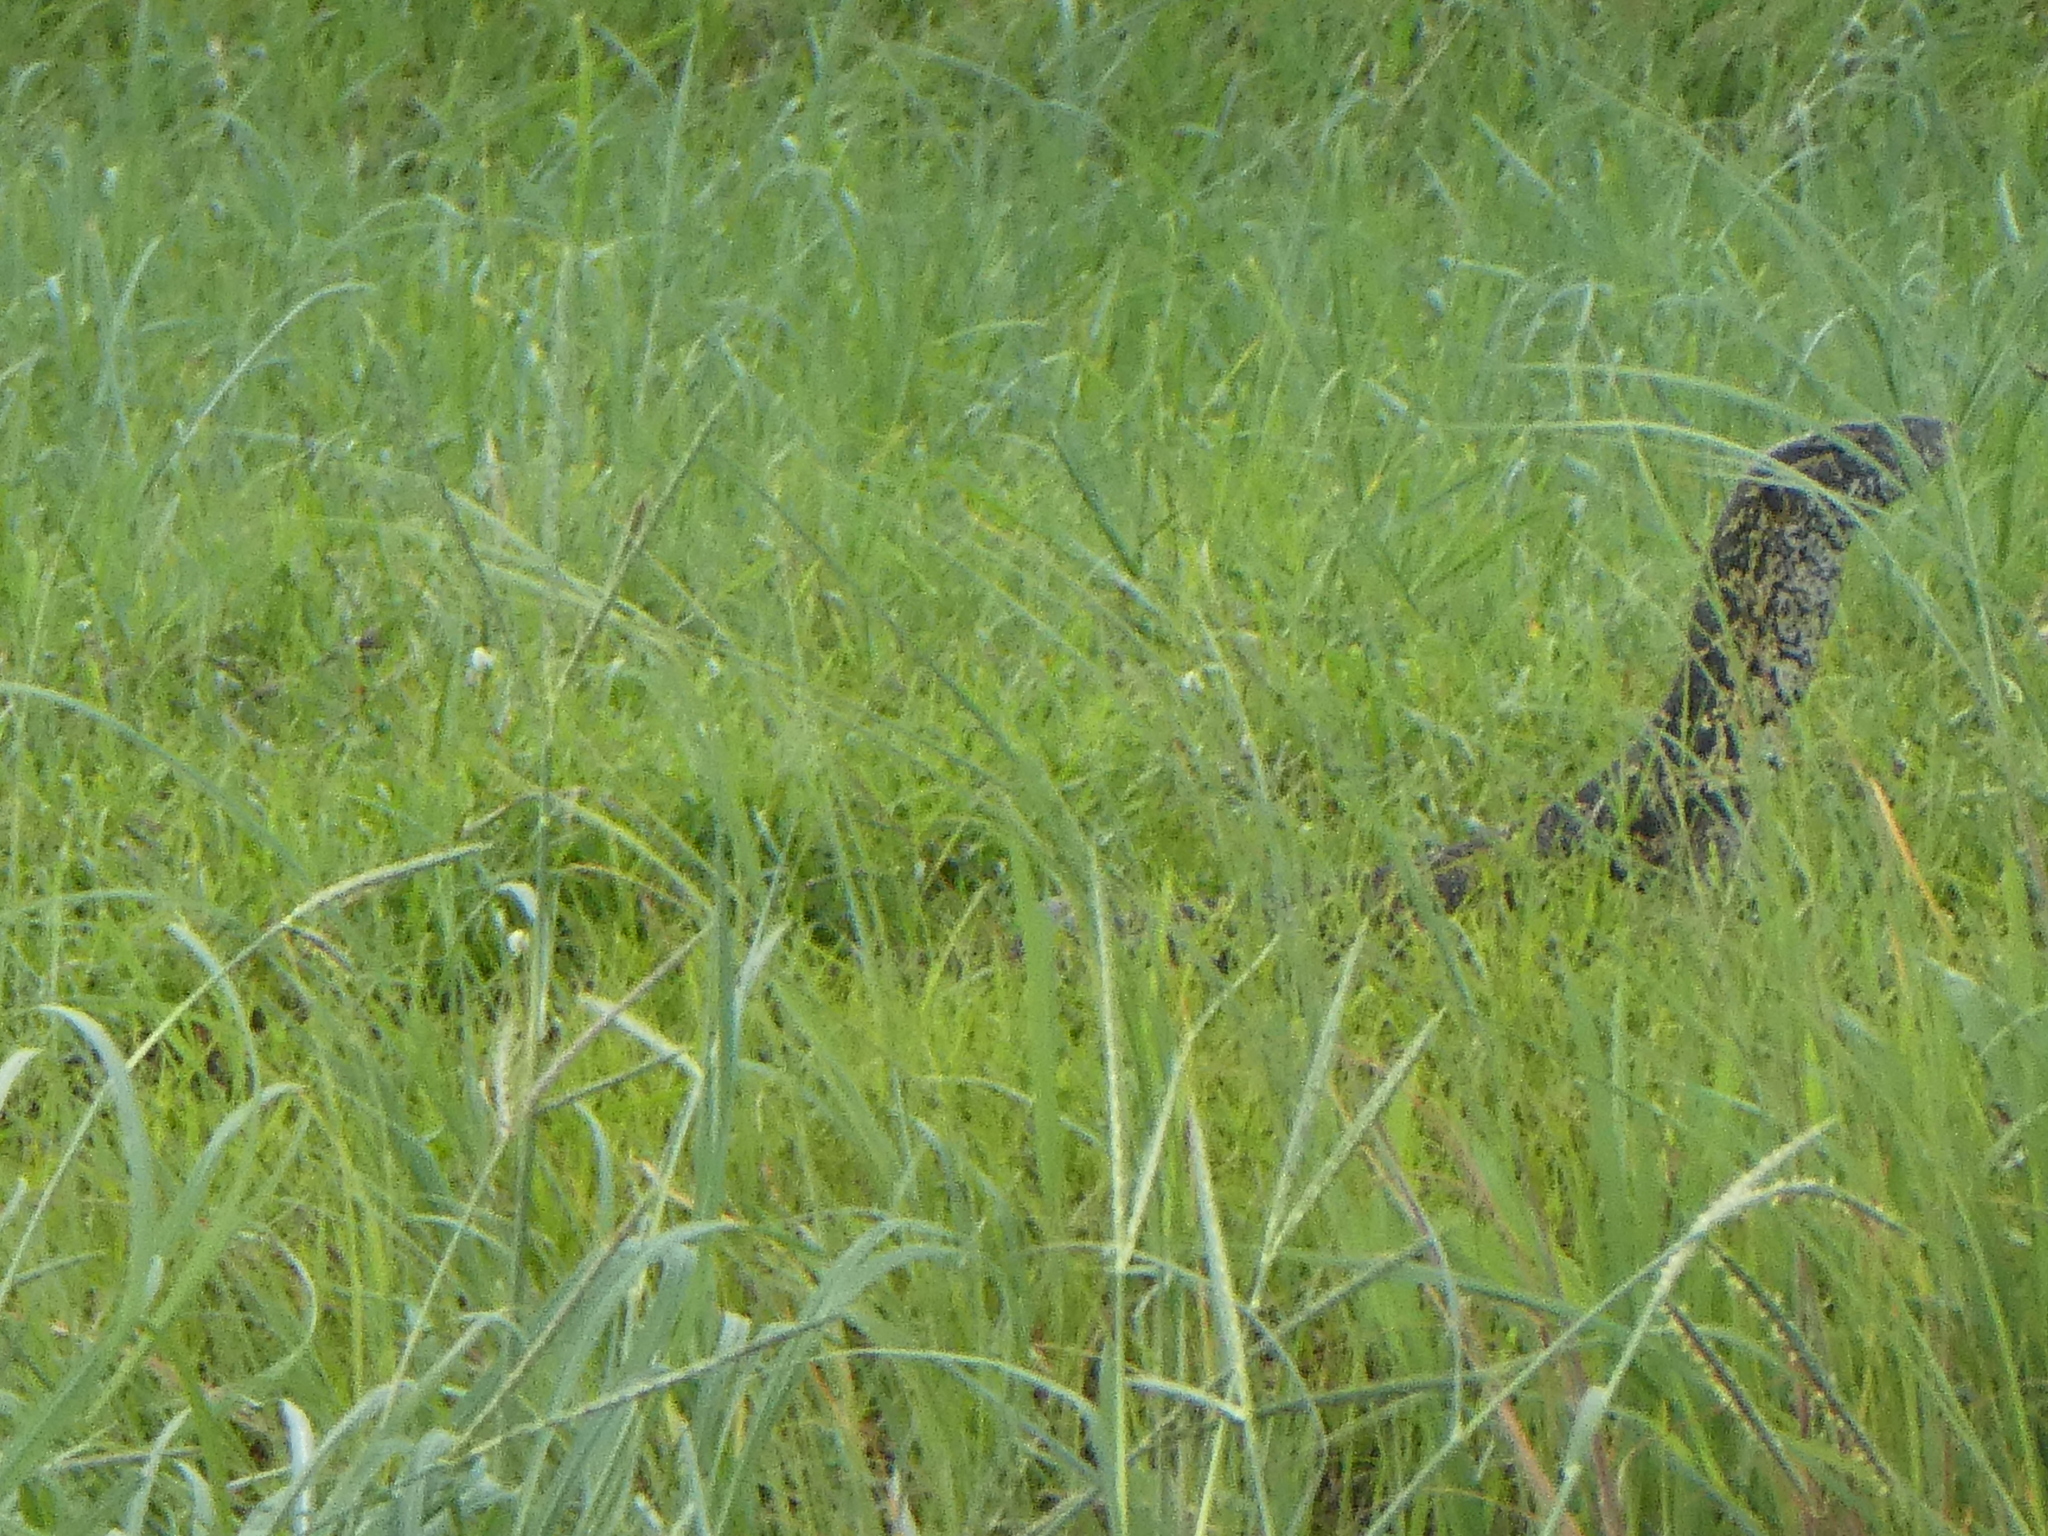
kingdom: Animalia
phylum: Chordata
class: Squamata
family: Varanidae
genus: Varanus
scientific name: Varanus niloticus
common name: Nile monitor
